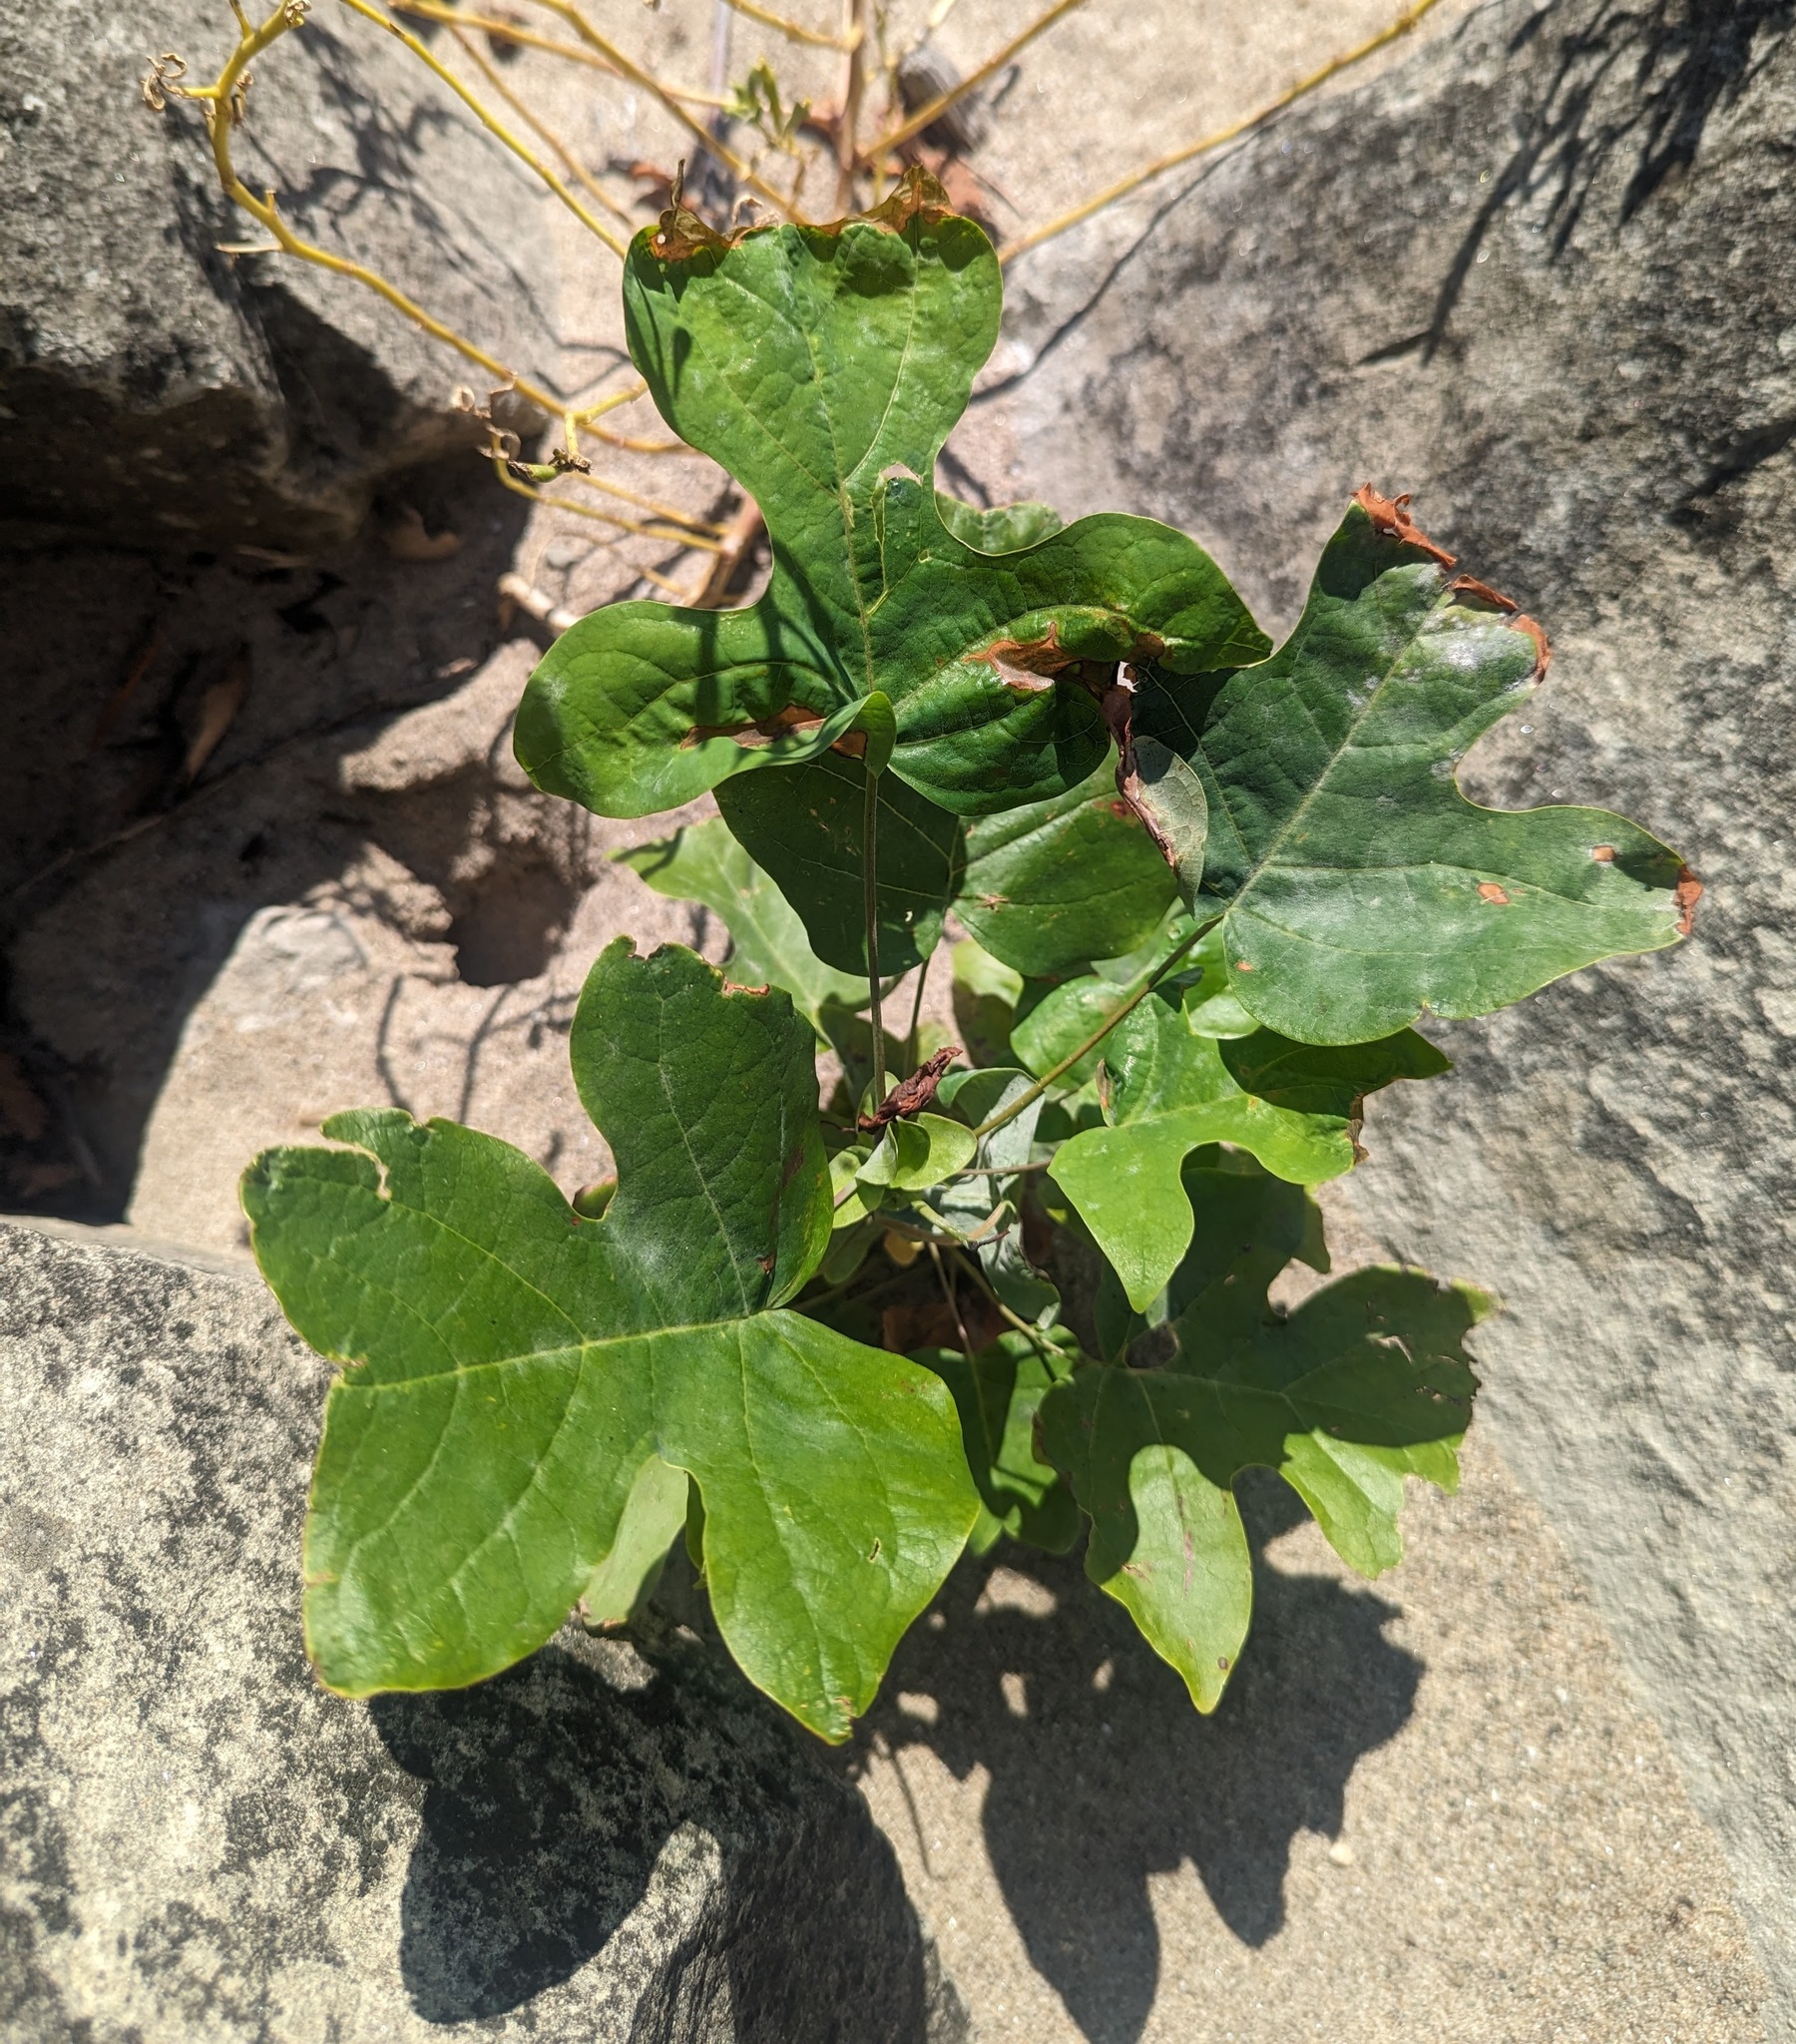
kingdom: Plantae
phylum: Tracheophyta
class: Magnoliopsida
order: Magnoliales
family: Magnoliaceae
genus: Liriodendron
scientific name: Liriodendron tulipifera
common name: Tulip tree
